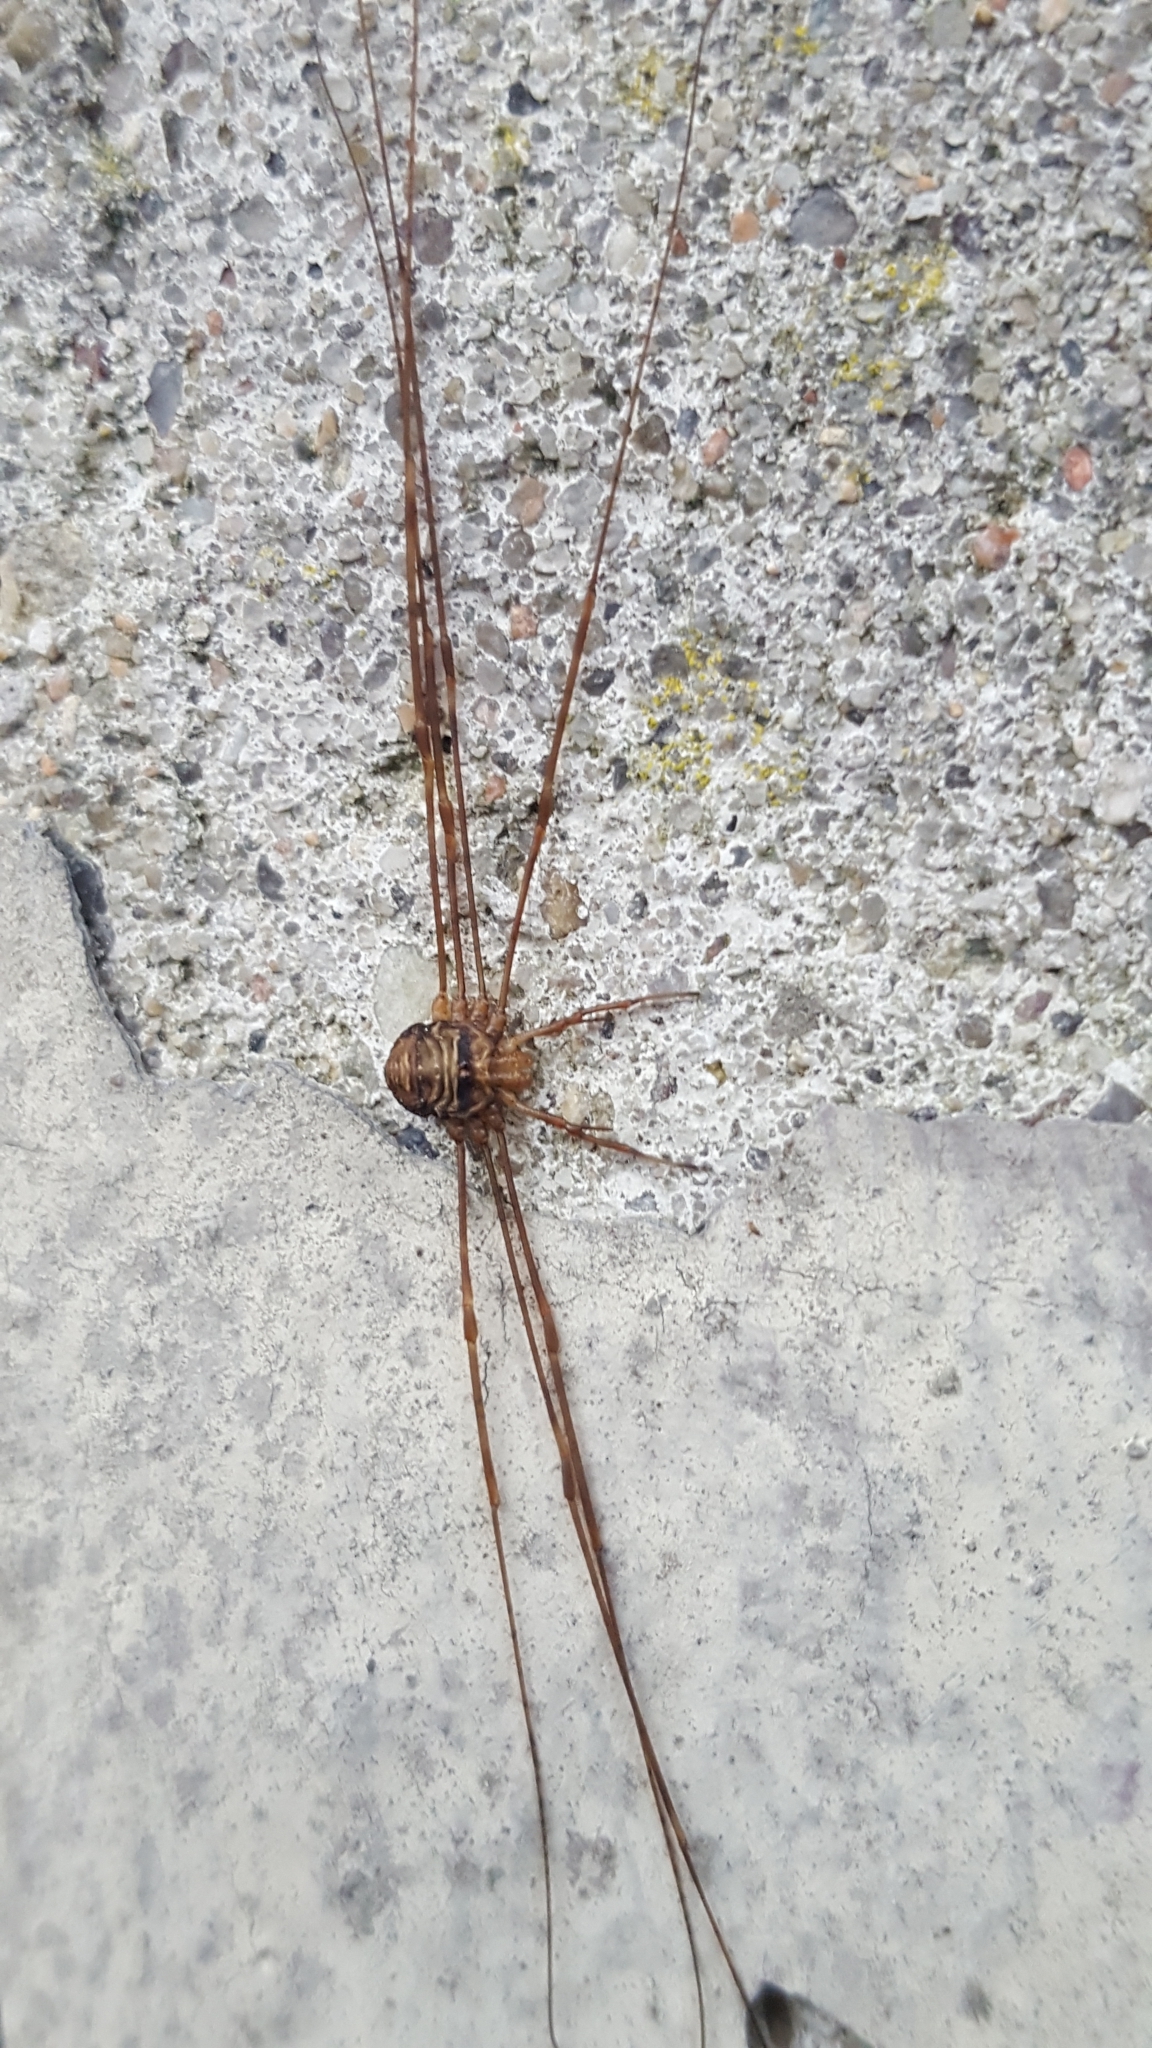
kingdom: Animalia
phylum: Arthropoda
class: Arachnida
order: Opiliones
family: Phalangiidae
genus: Dicranopalpus
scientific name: Dicranopalpus ramosus
